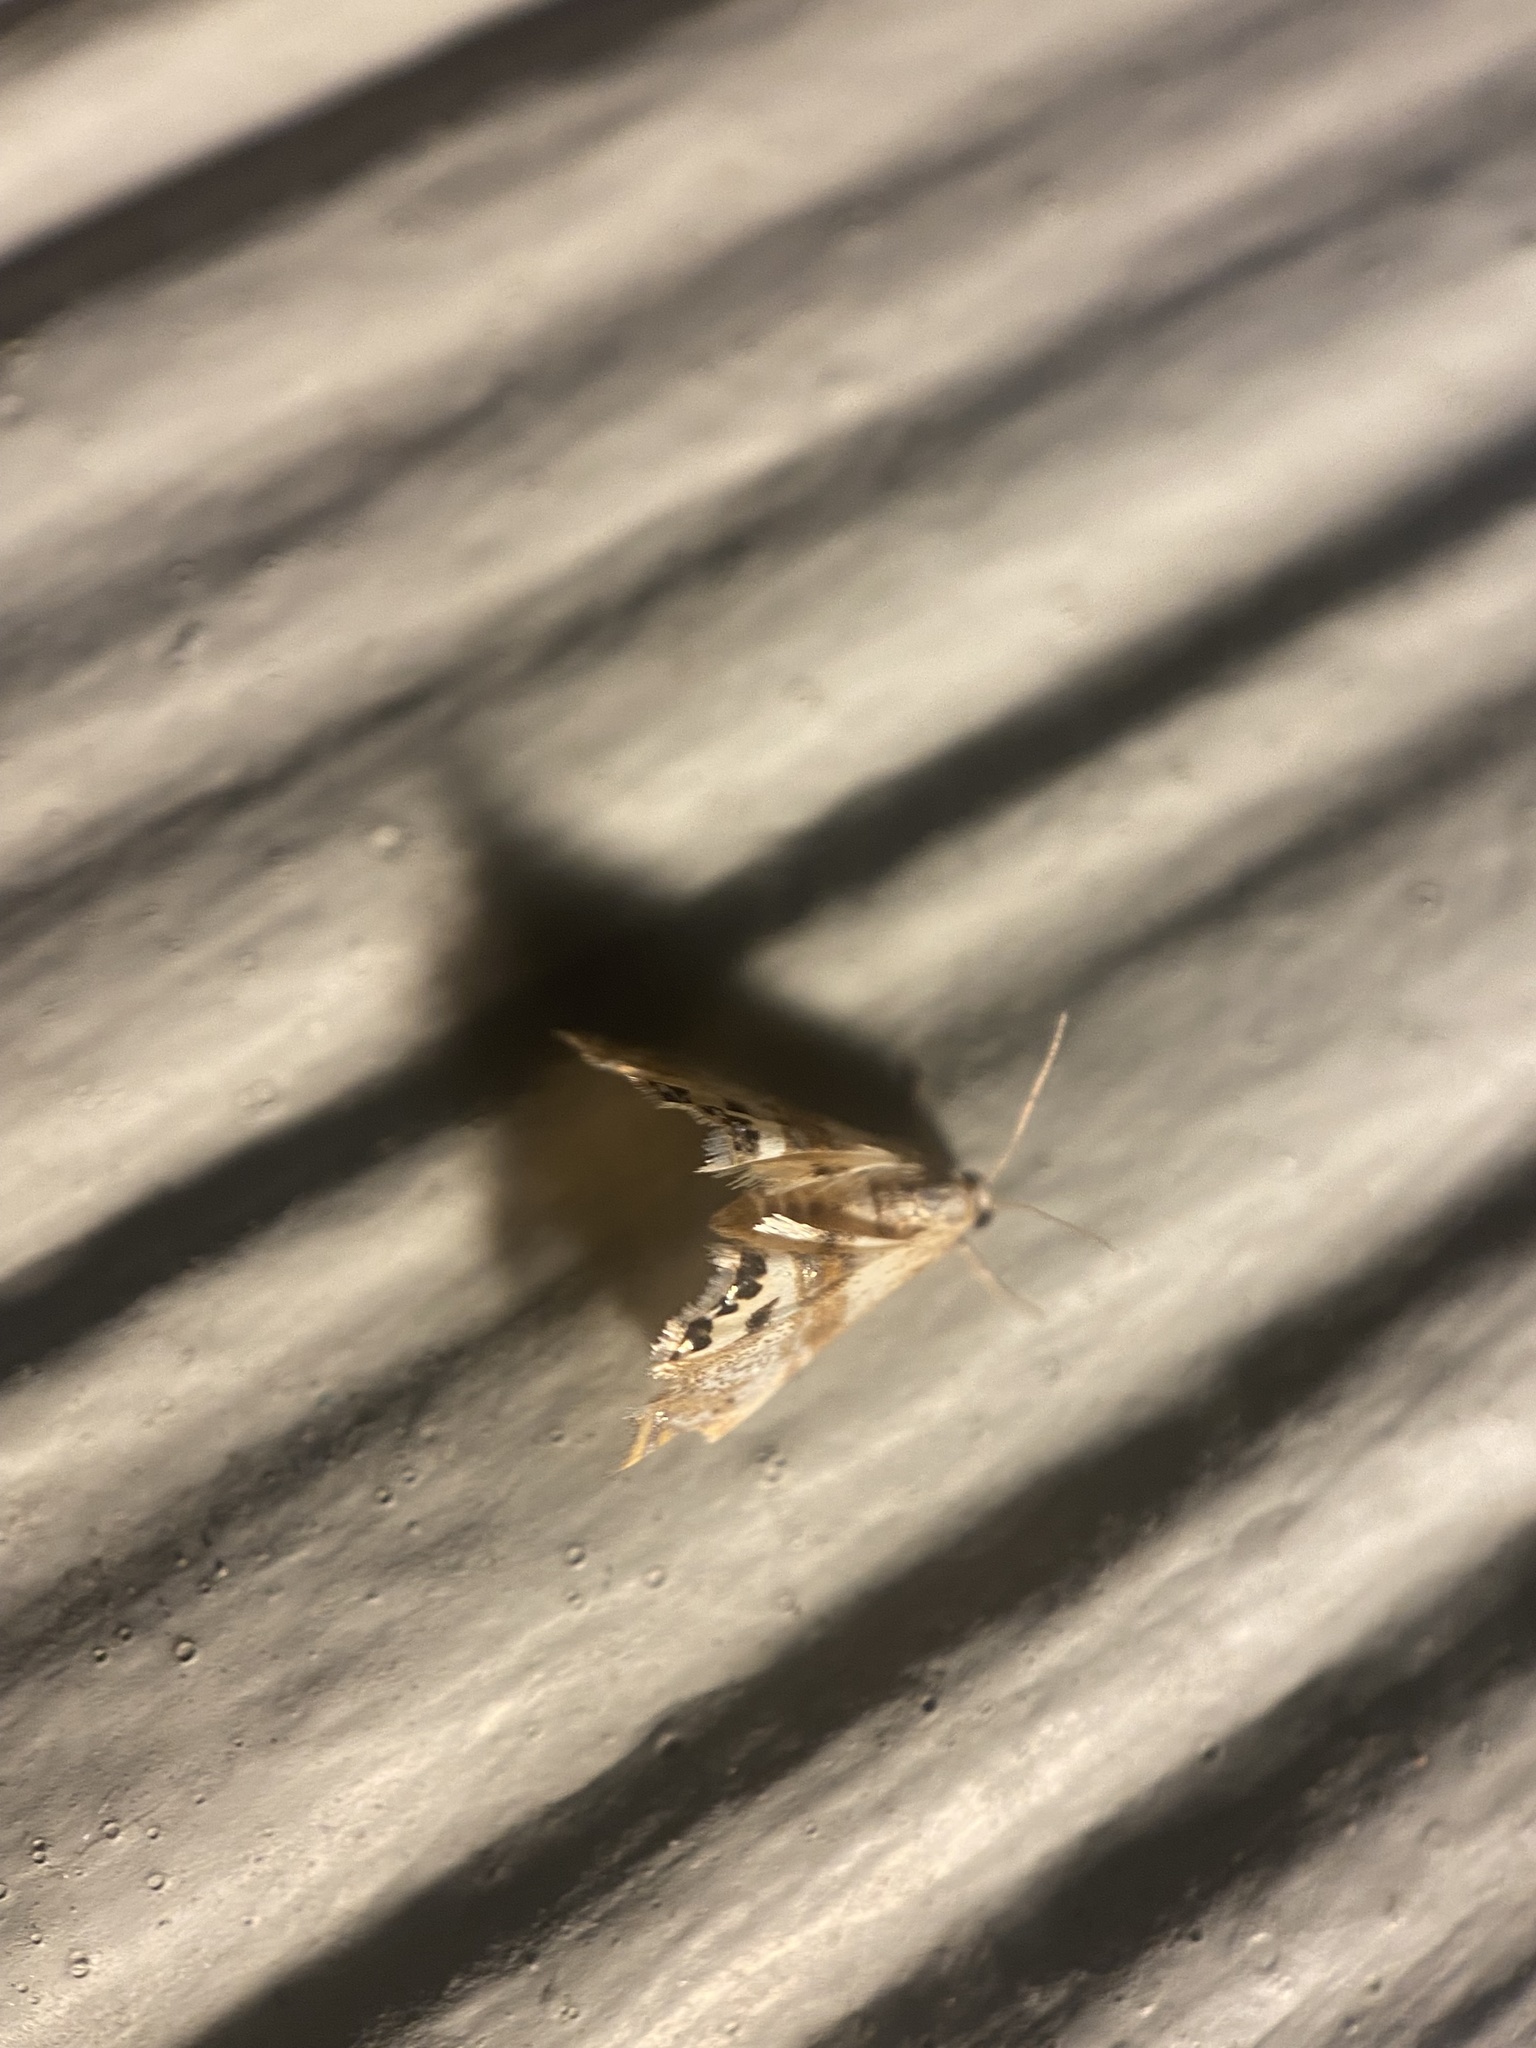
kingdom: Animalia
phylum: Arthropoda
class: Insecta
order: Lepidoptera
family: Crambidae
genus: Petrophila
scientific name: Petrophila bifascialis
